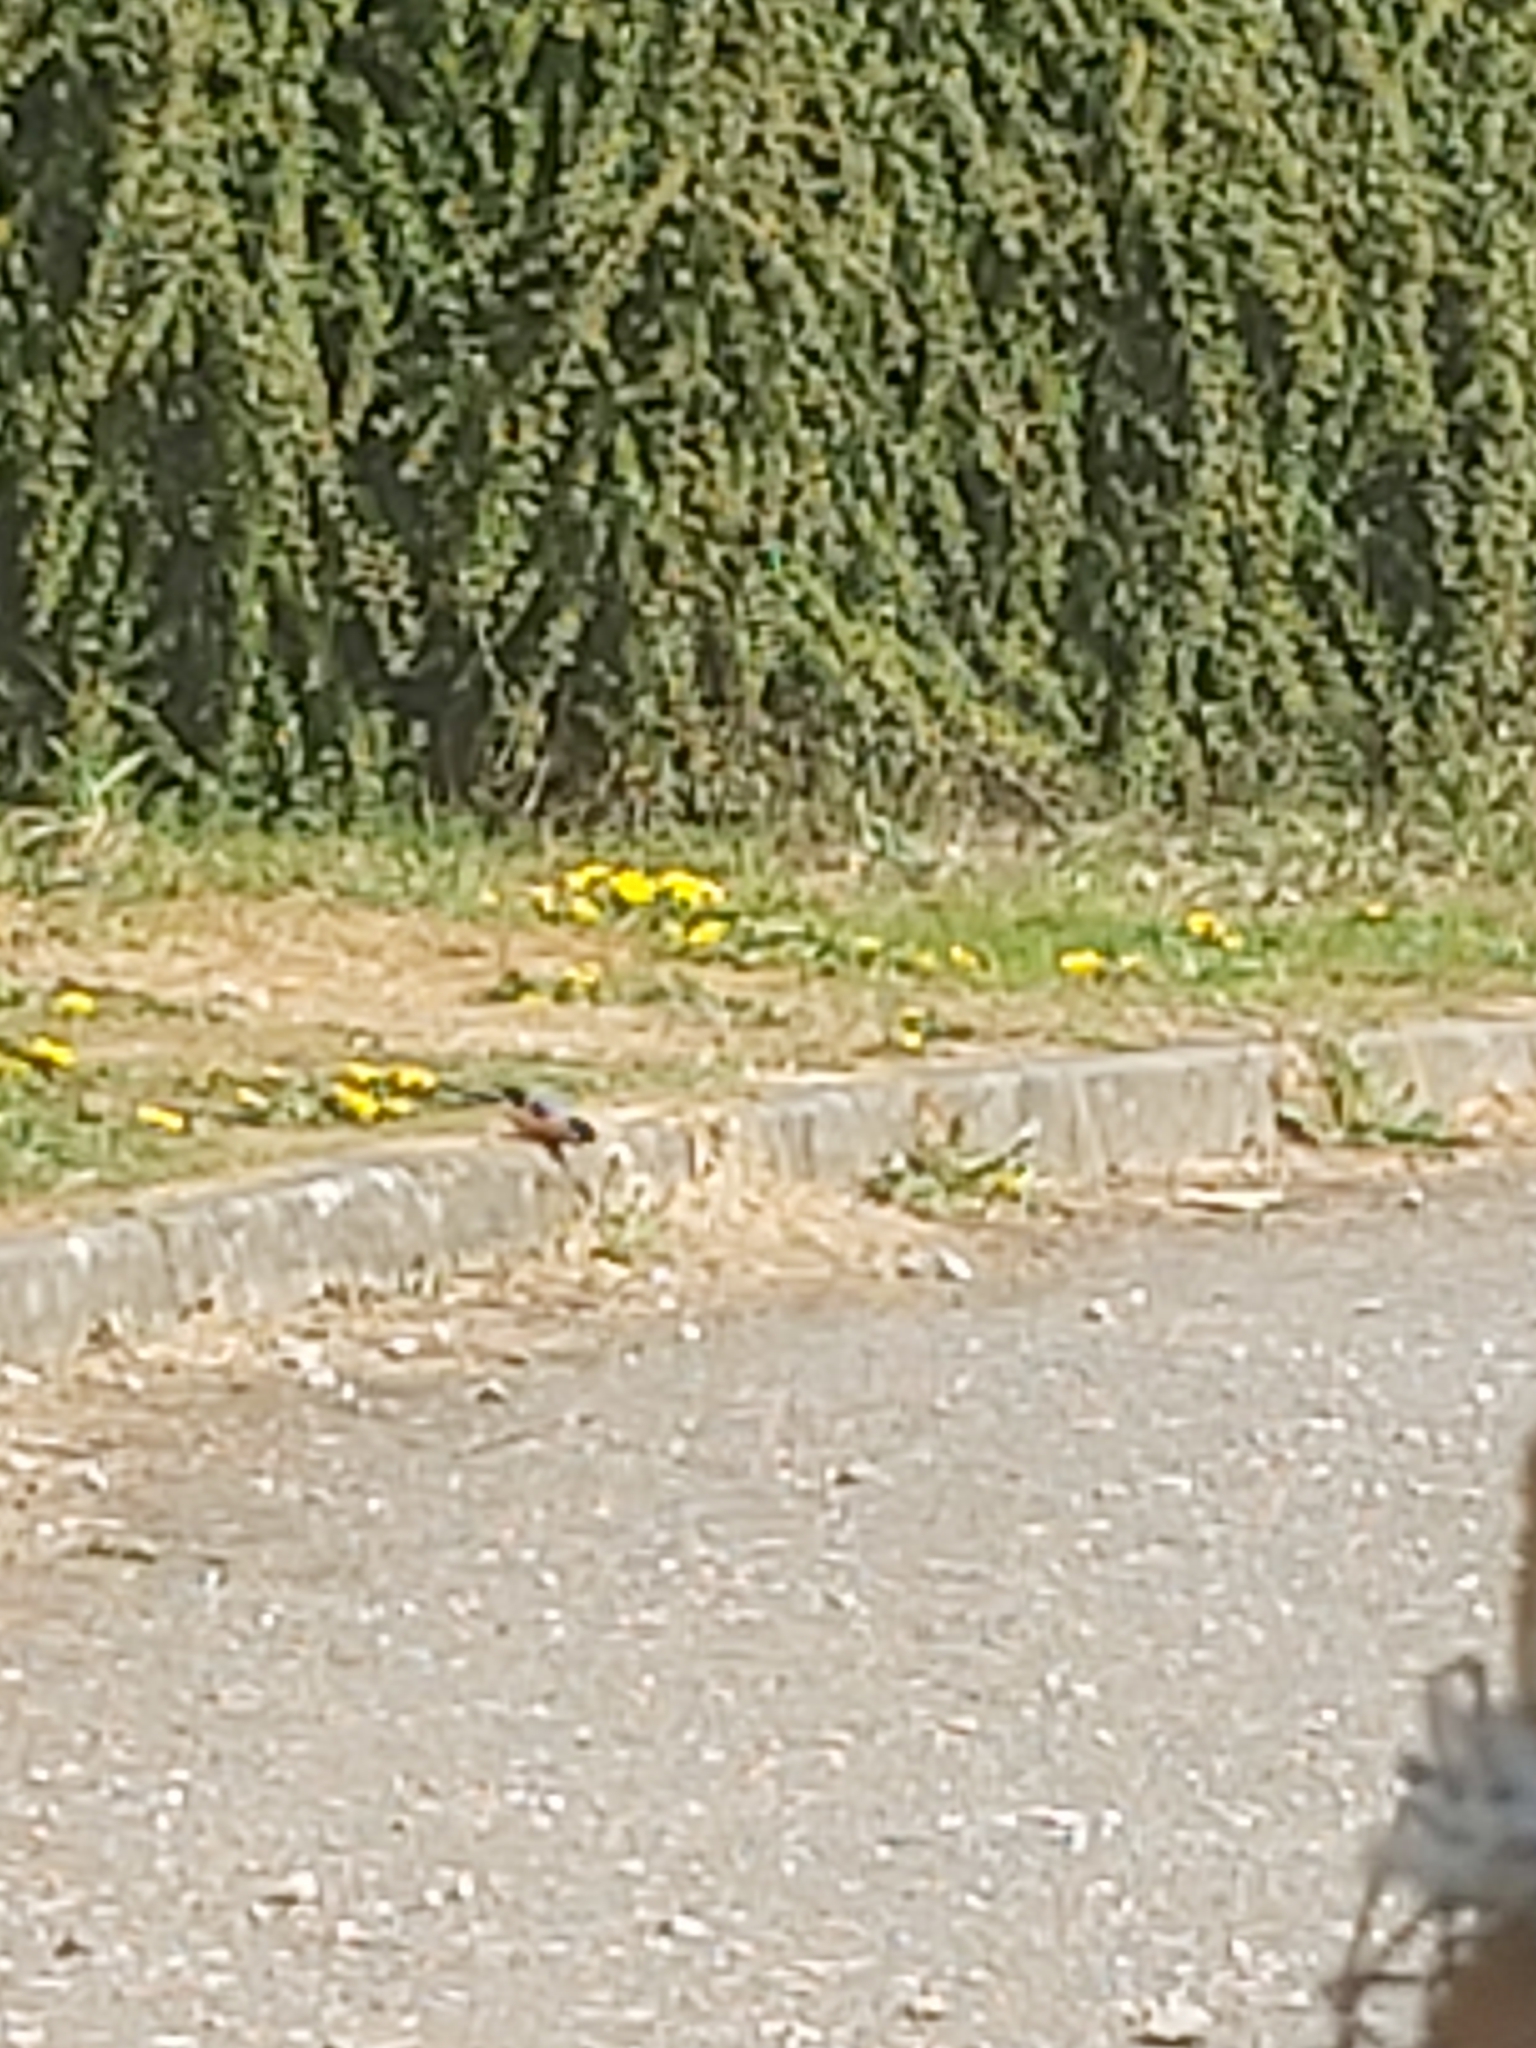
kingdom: Animalia
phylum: Chordata
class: Aves
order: Passeriformes
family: Fringillidae
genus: Pyrrhula
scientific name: Pyrrhula pyrrhula
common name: Eurasian bullfinch
